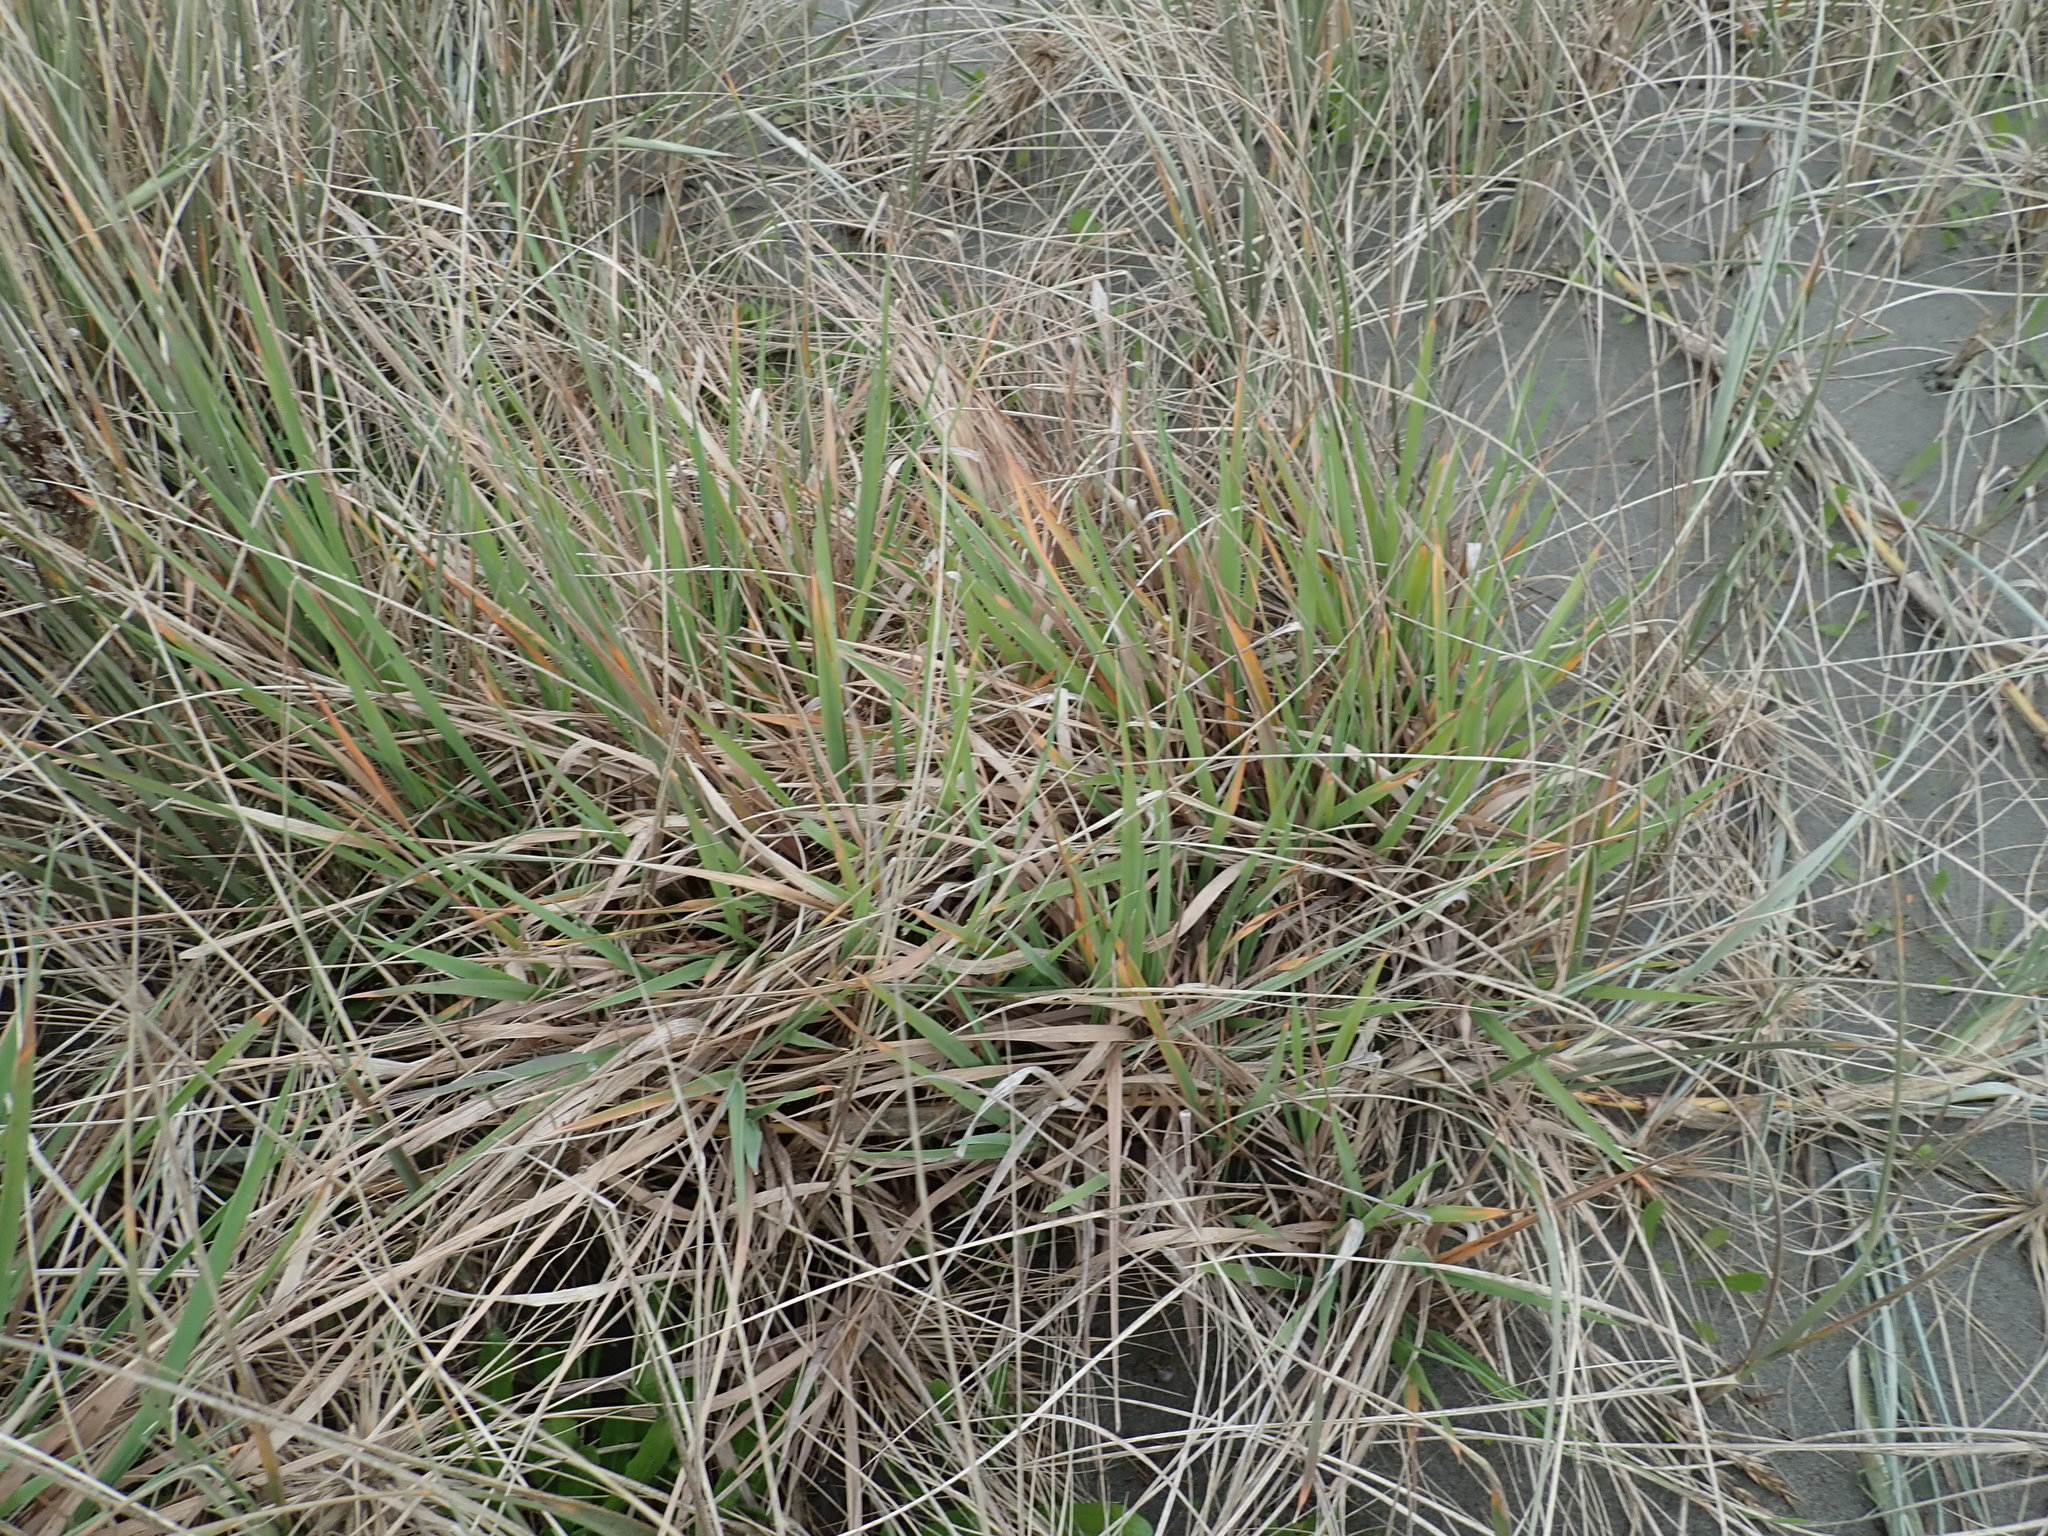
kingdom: Plantae
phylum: Tracheophyta
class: Liliopsida
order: Poales
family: Poaceae
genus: Lachnagrostis
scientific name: Lachnagrostis billardierei
